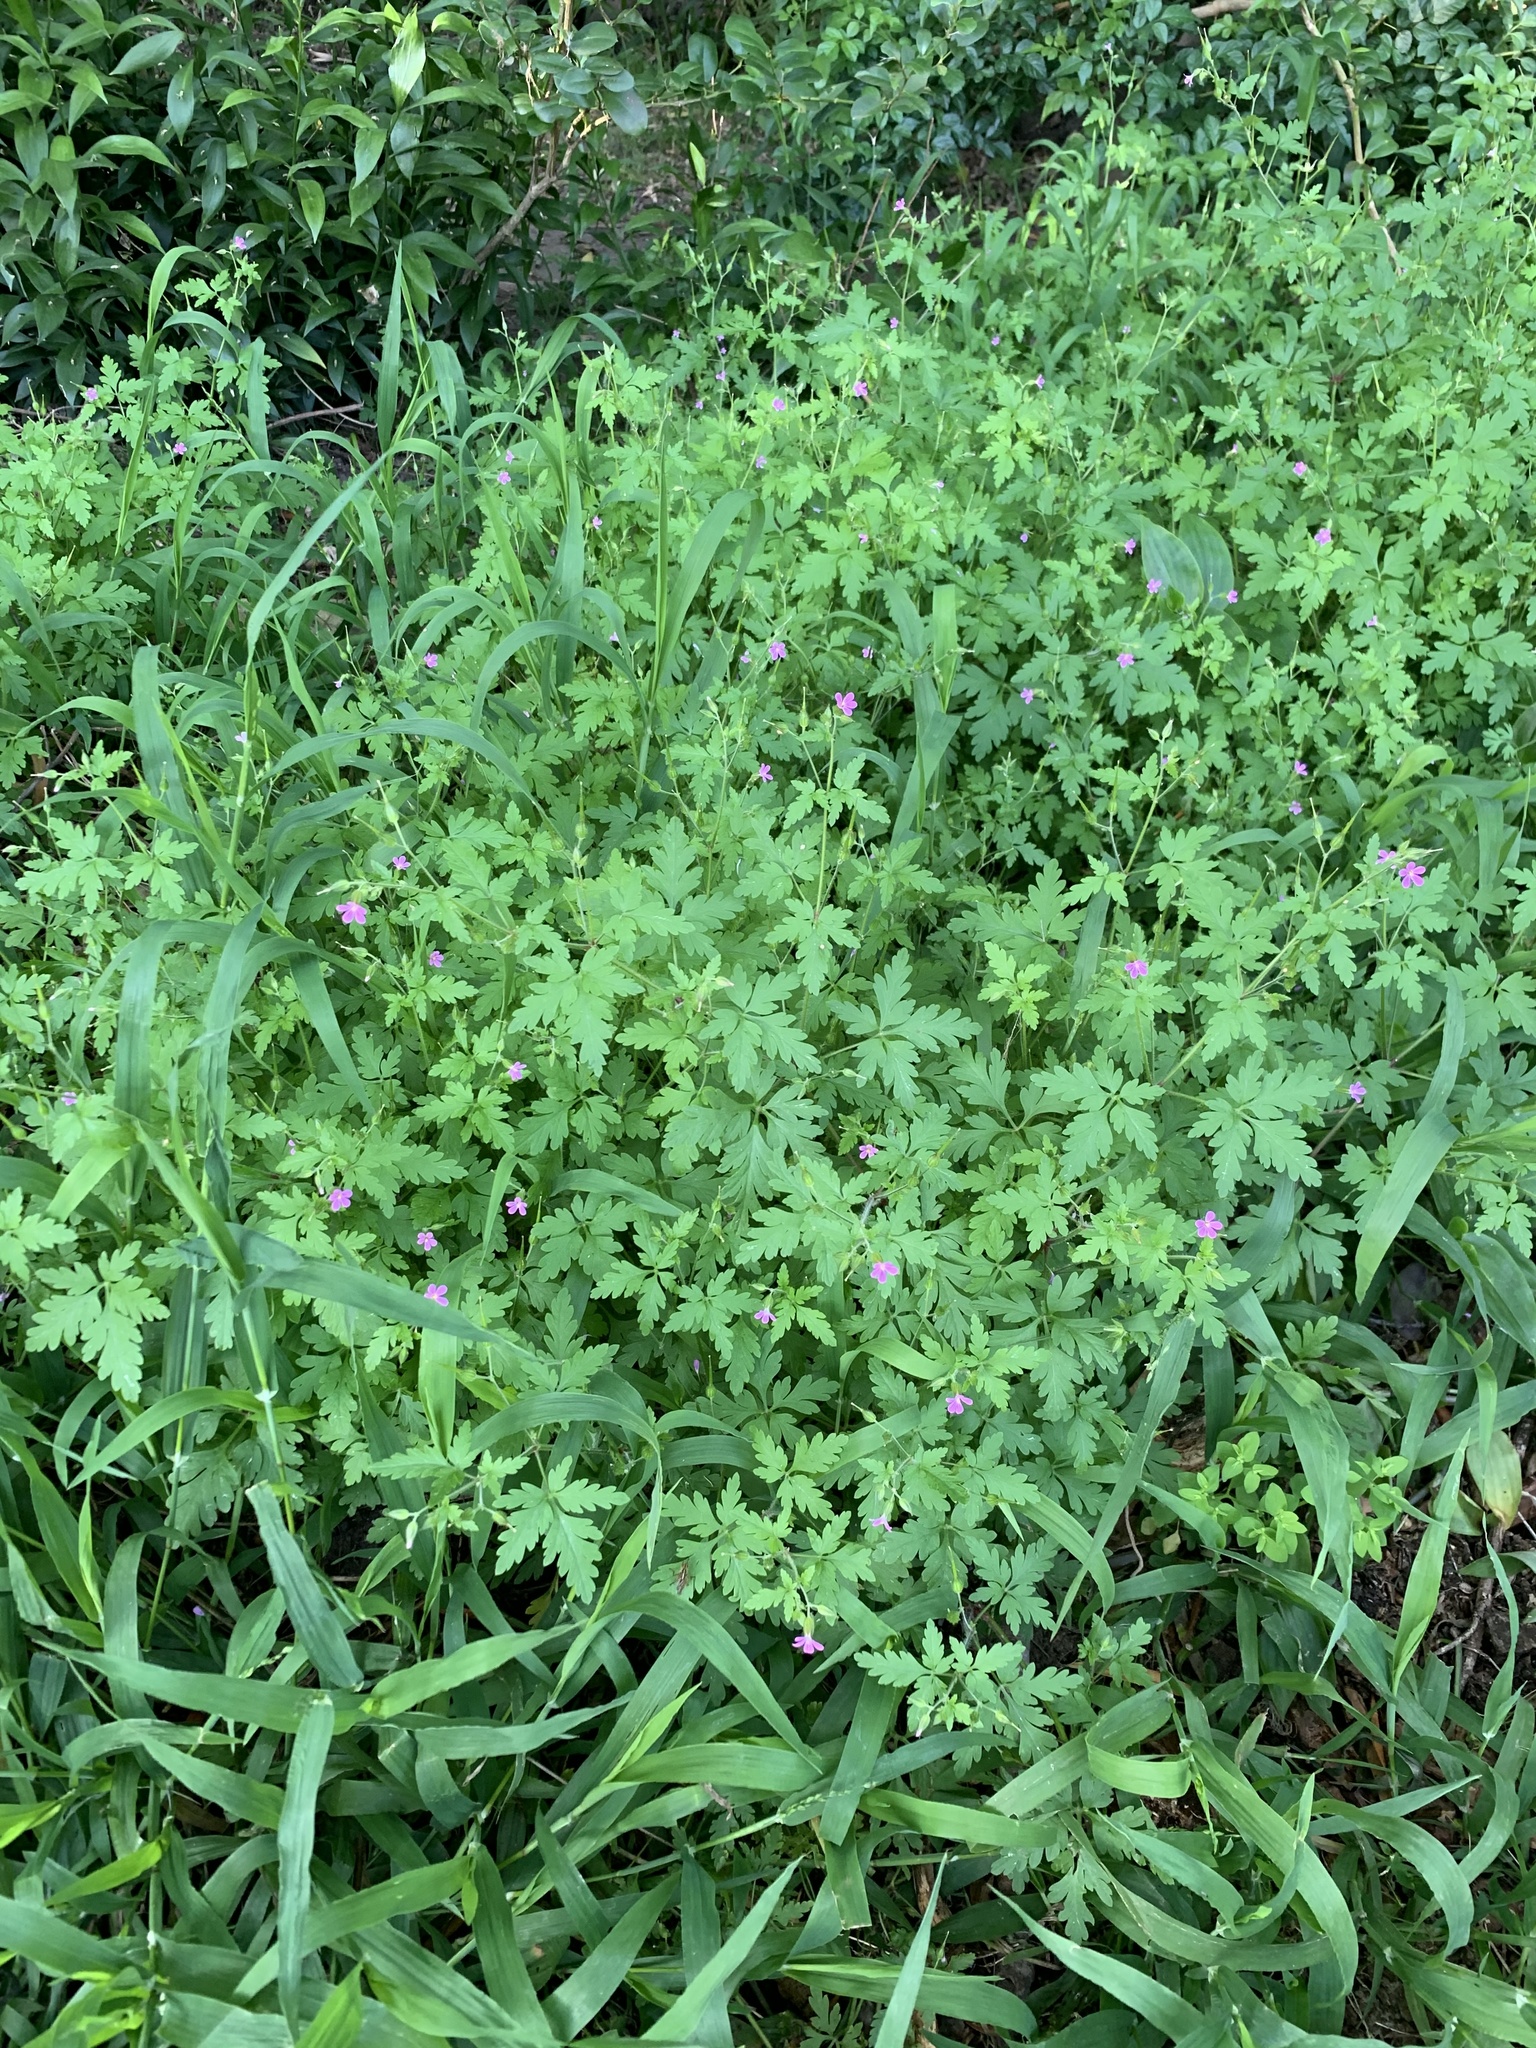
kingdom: Plantae
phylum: Tracheophyta
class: Magnoliopsida
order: Geraniales
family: Geraniaceae
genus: Geranium
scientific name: Geranium purpureum
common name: Little-robin
